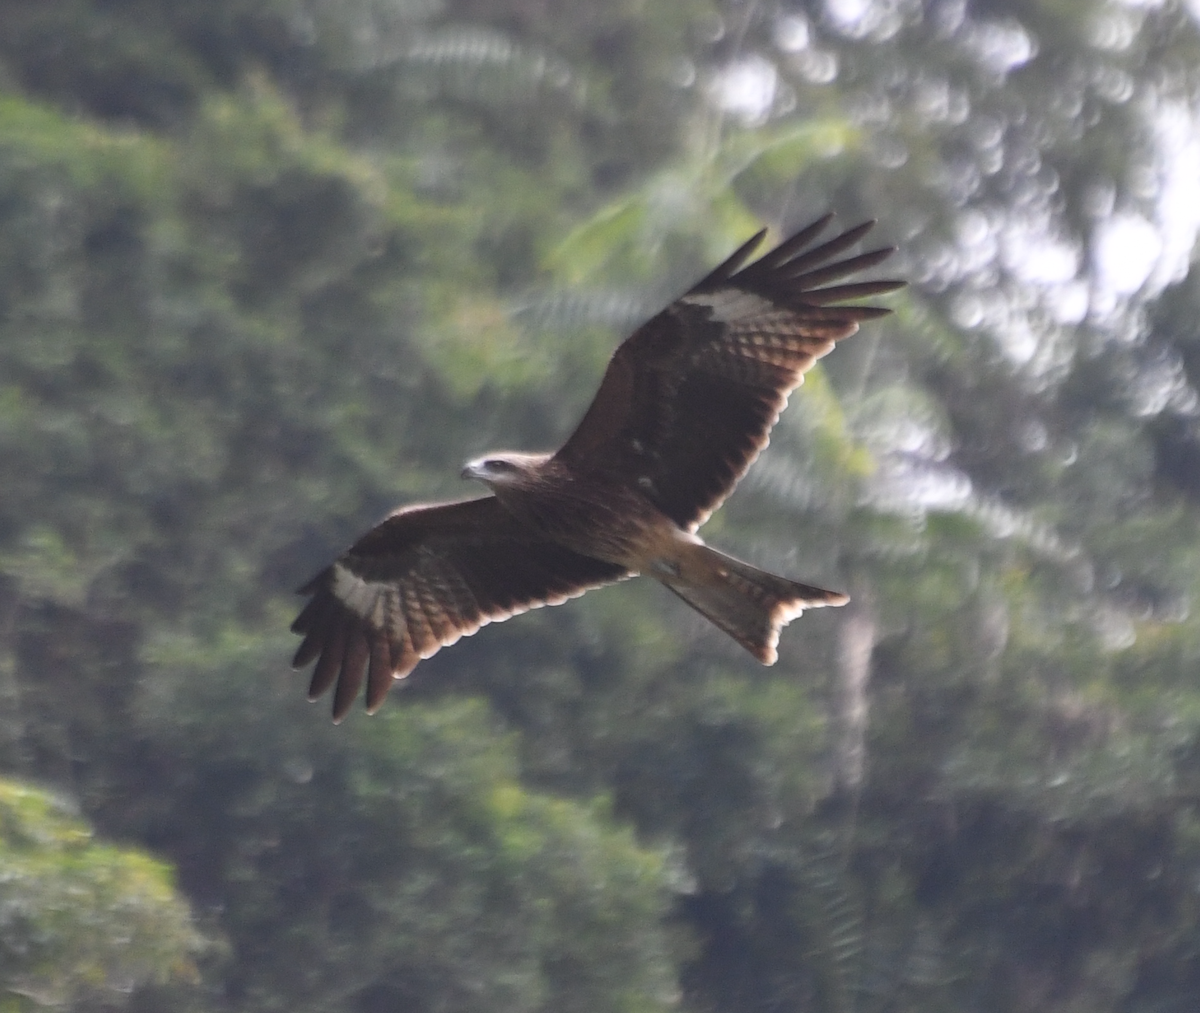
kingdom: Animalia
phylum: Chordata
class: Aves
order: Accipitriformes
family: Accipitridae
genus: Milvus
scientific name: Milvus migrans
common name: Black kite
